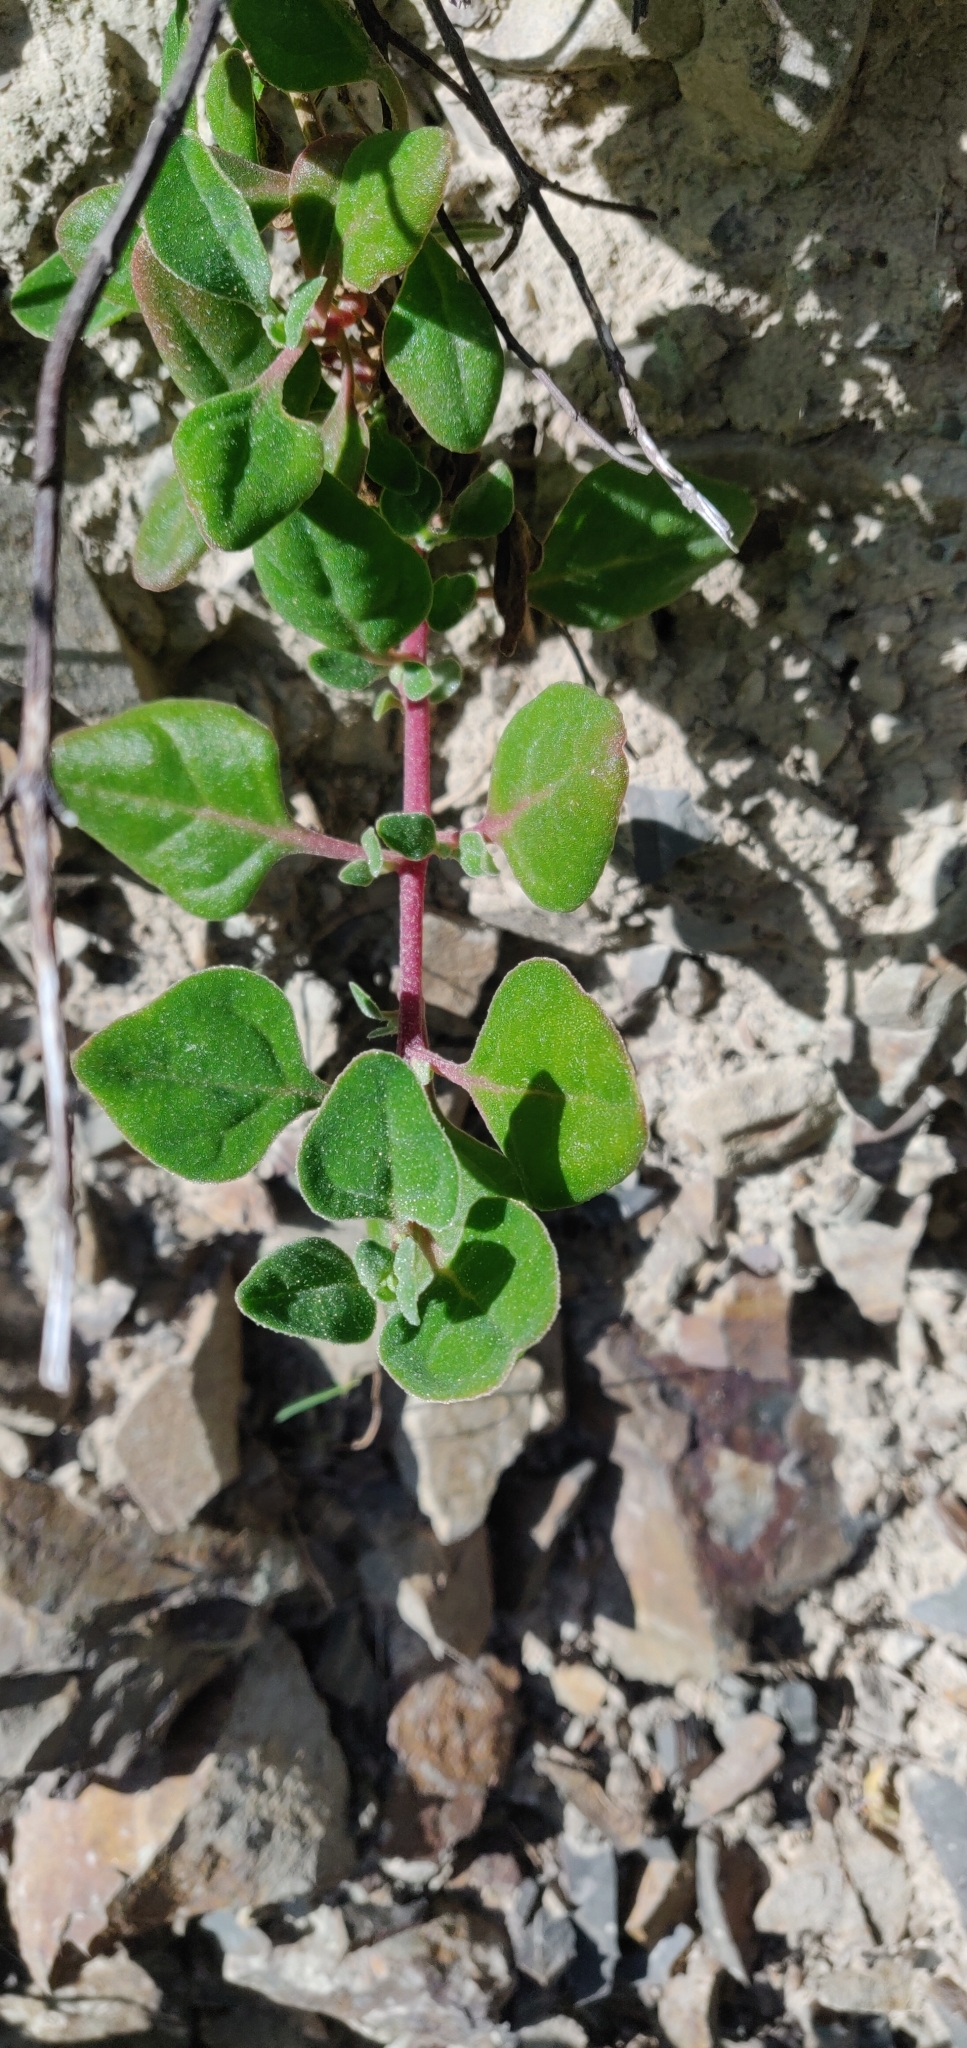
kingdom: Plantae
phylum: Tracheophyta
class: Magnoliopsida
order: Caryophyllales
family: Aizoaceae
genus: Tetragonia
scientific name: Tetragonia implexicoma
